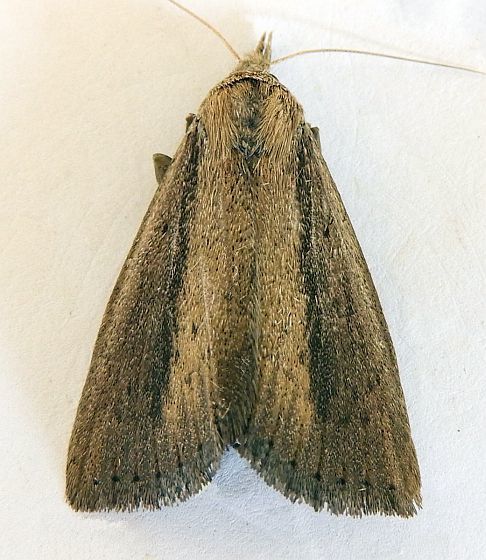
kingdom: Animalia
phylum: Arthropoda
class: Insecta
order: Lepidoptera
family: Erebidae
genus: Gabara
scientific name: Gabara stygialis
